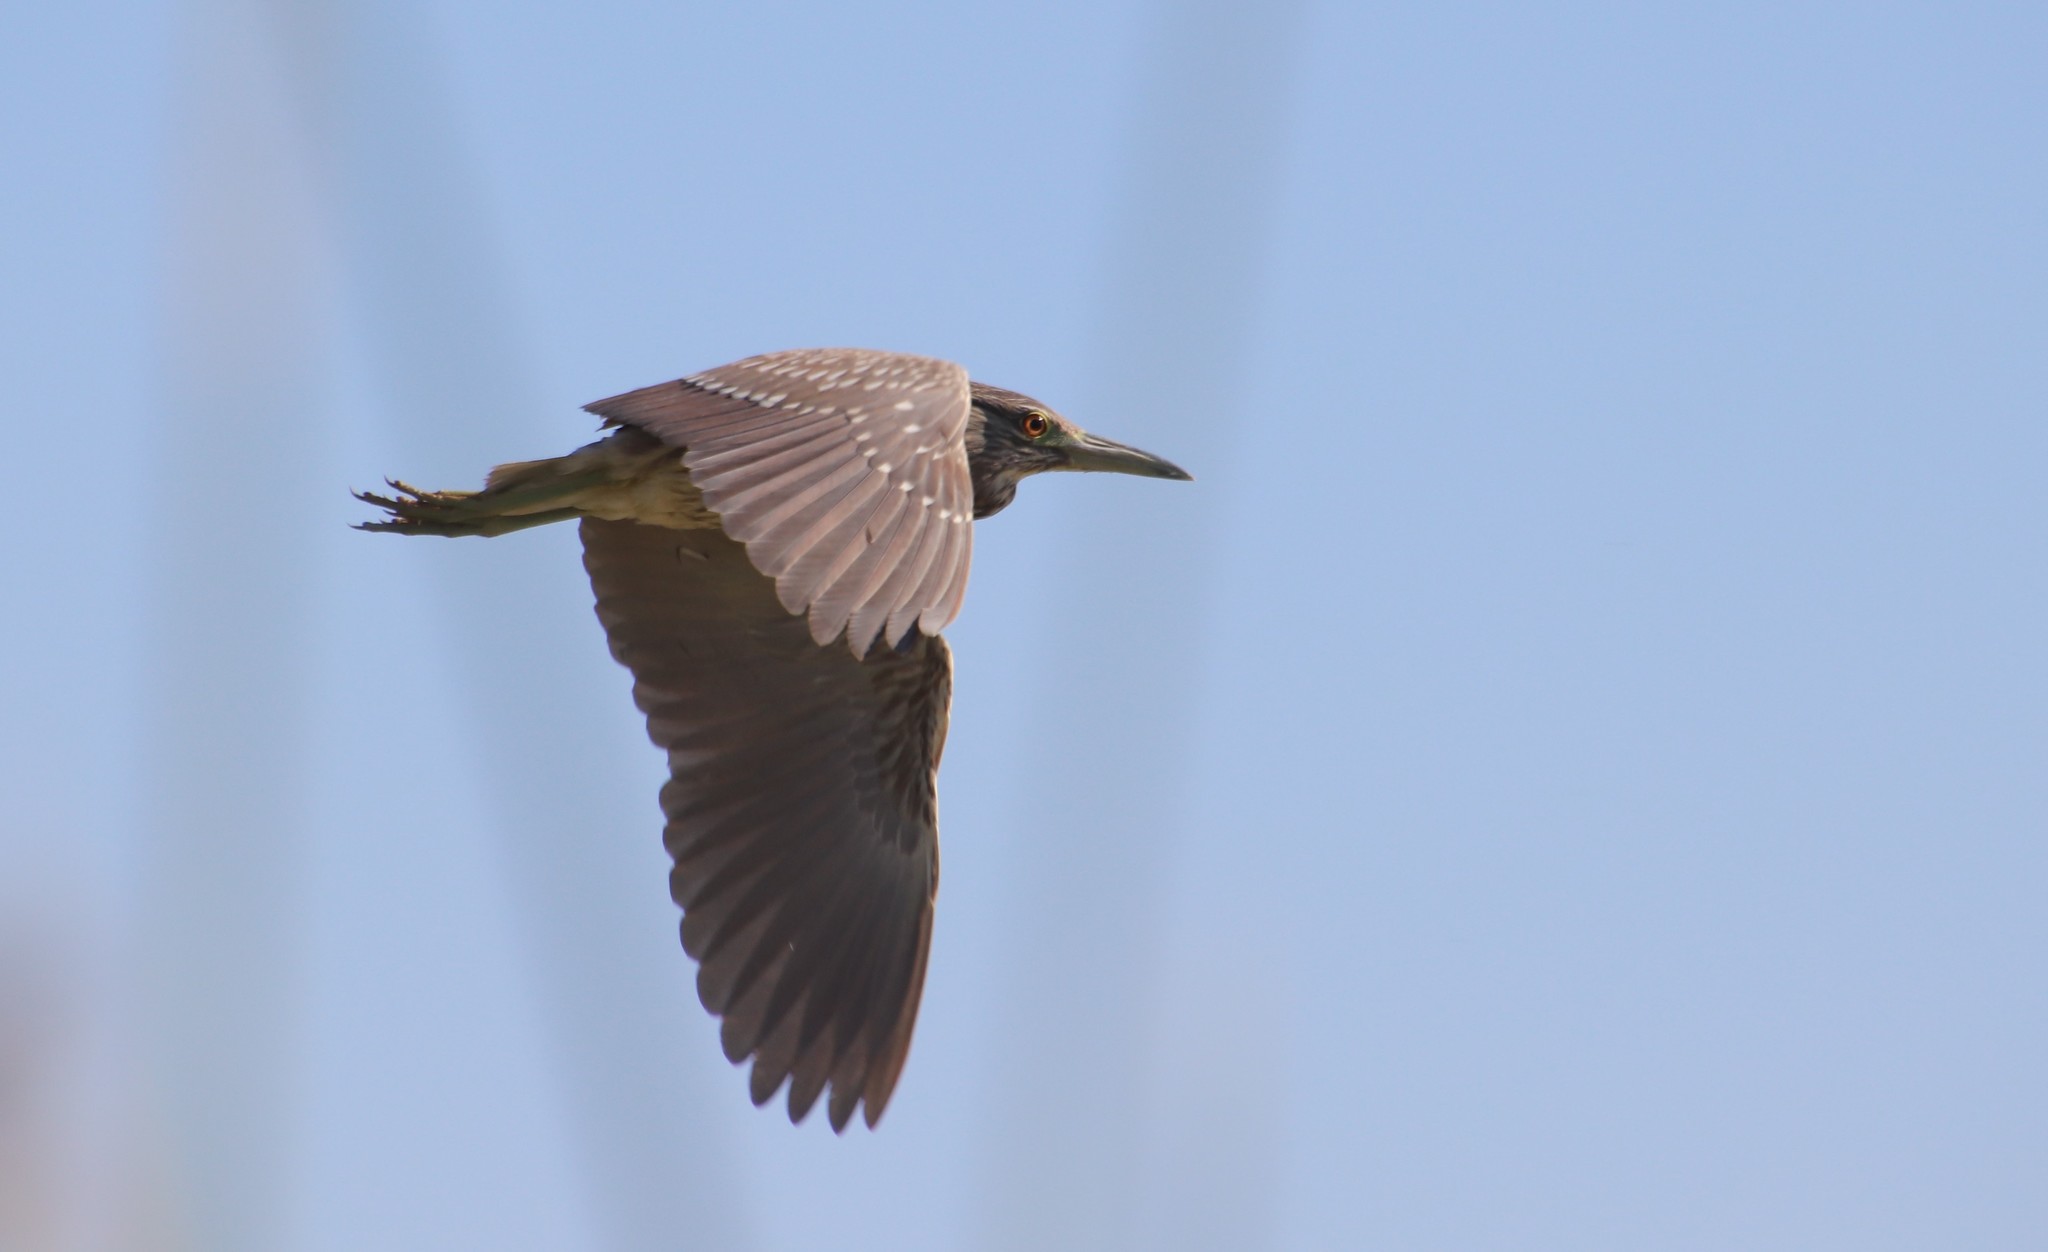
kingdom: Animalia
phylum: Chordata
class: Aves
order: Pelecaniformes
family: Ardeidae
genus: Nycticorax
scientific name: Nycticorax nycticorax
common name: Black-crowned night heron
